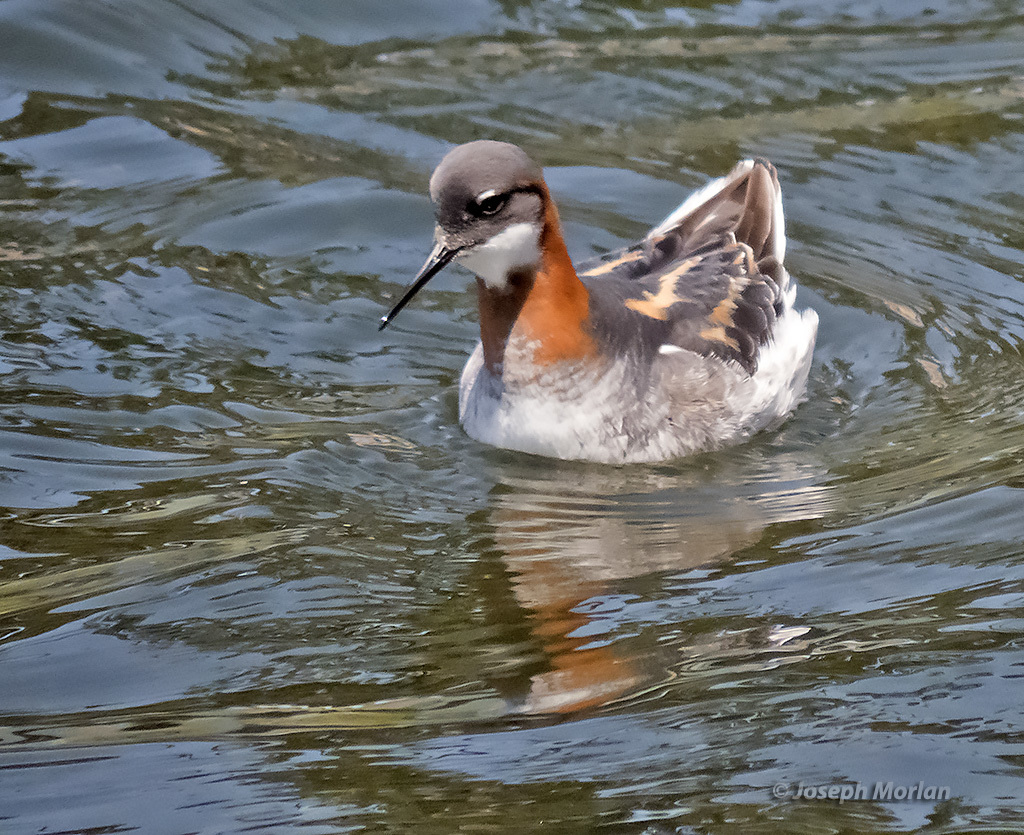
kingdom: Animalia
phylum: Chordata
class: Aves
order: Charadriiformes
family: Scolopacidae
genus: Phalaropus
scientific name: Phalaropus lobatus
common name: Red-necked phalarope
